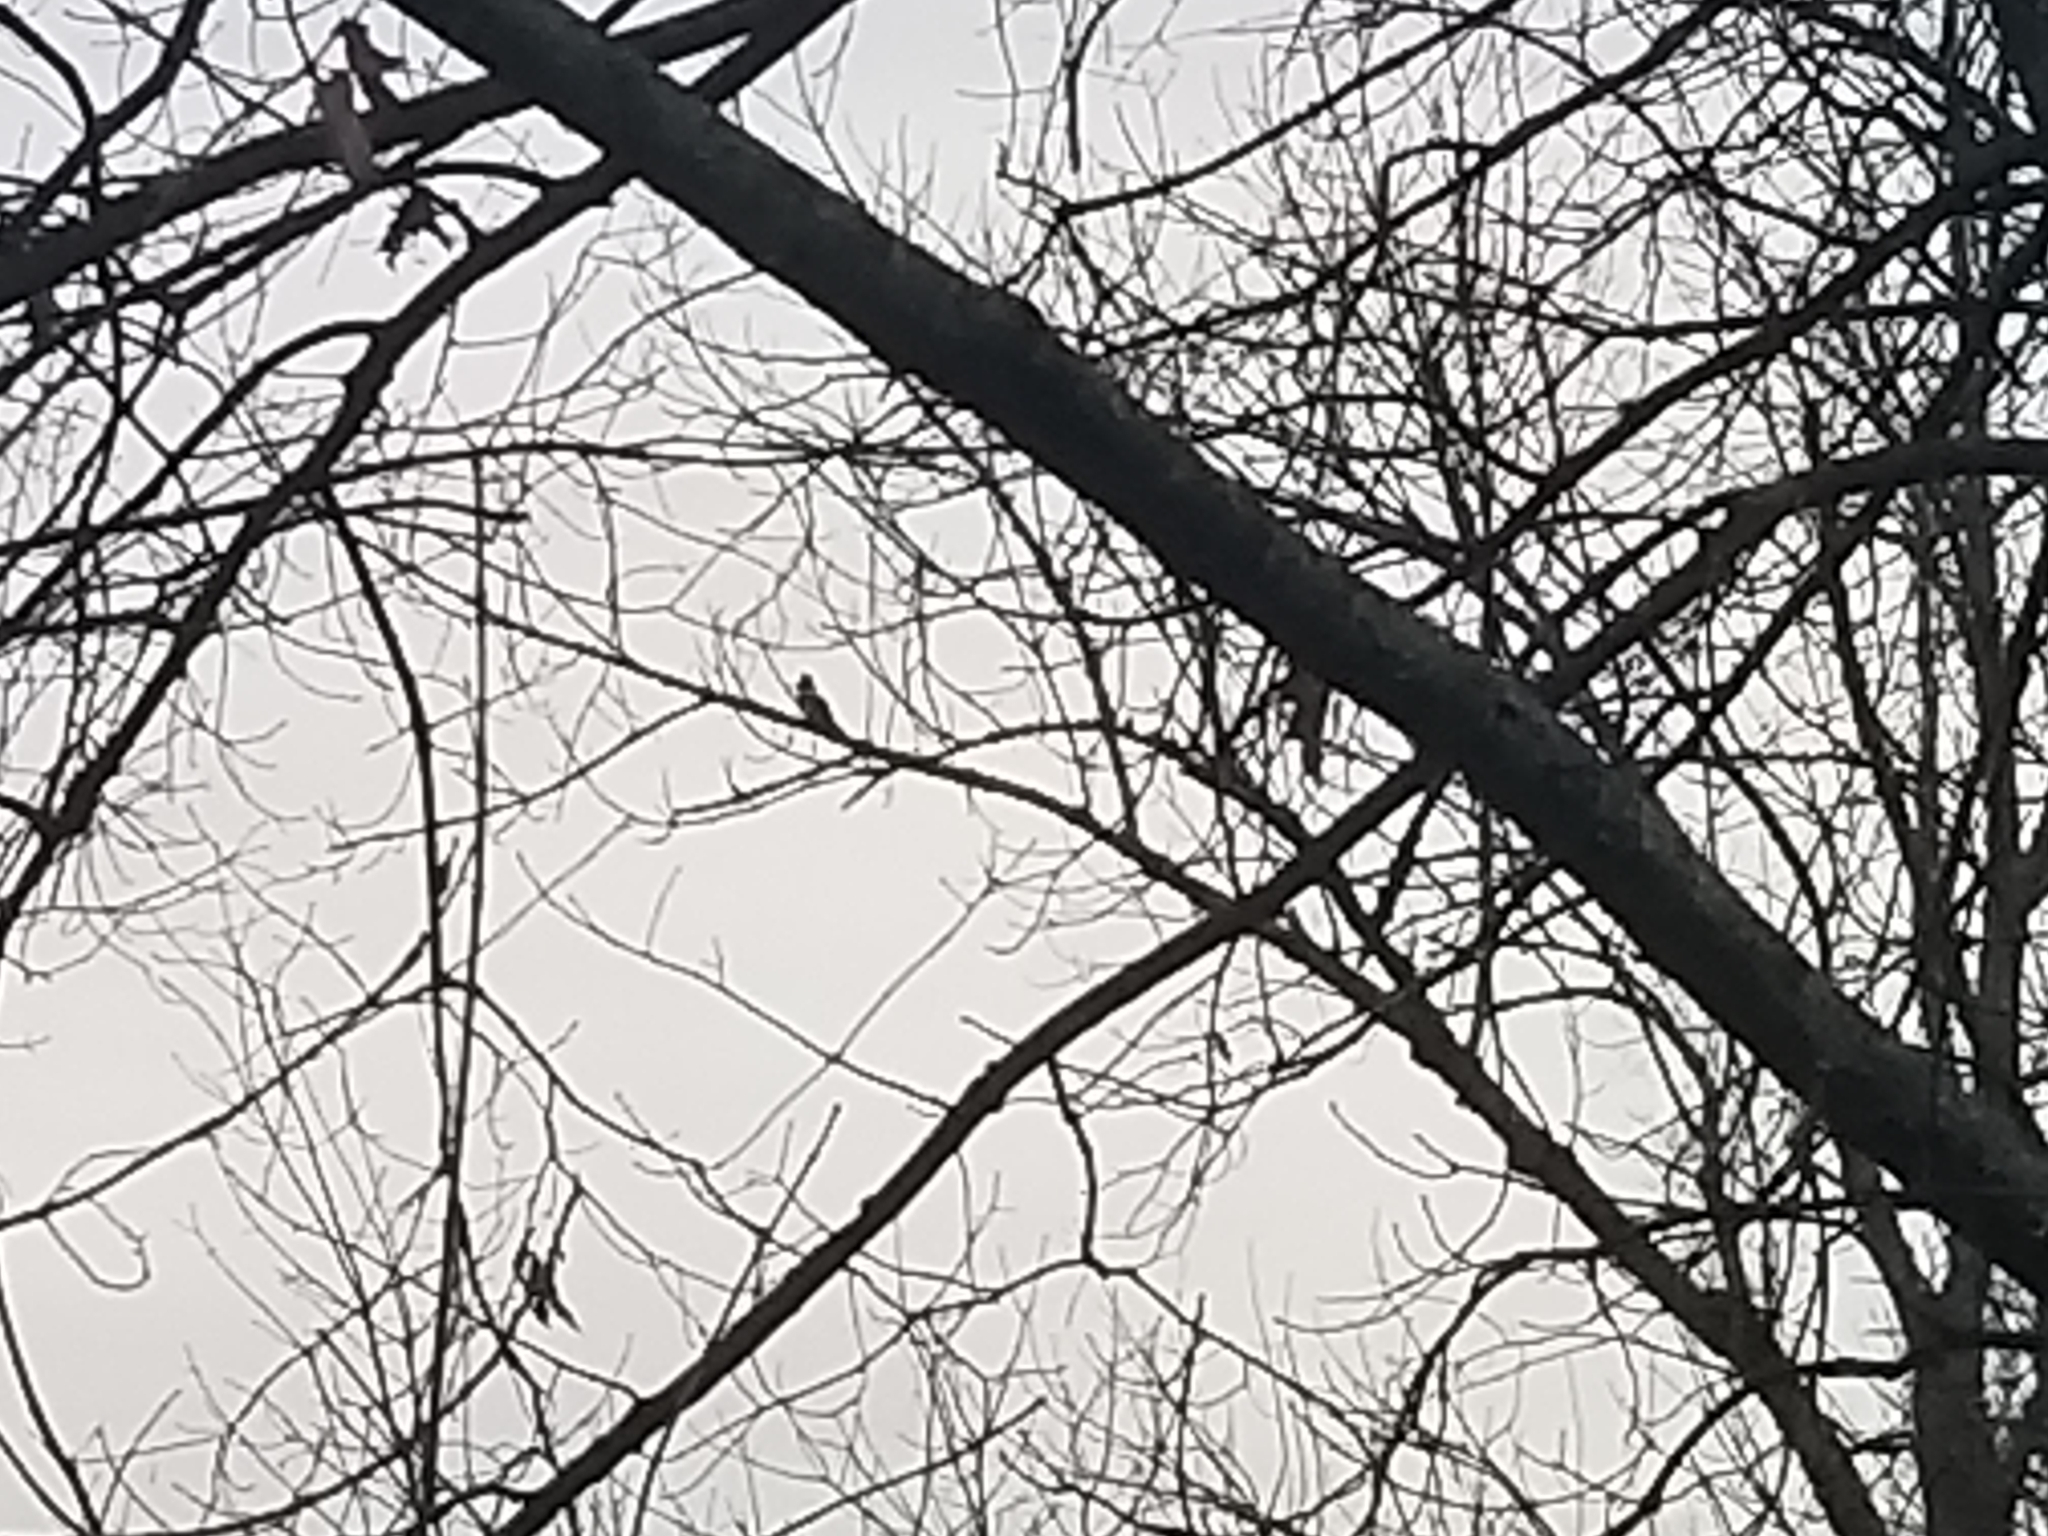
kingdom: Animalia
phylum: Chordata
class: Aves
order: Coraciiformes
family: Alcedinidae
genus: Megaceryle
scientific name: Megaceryle alcyon
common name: Belted kingfisher
